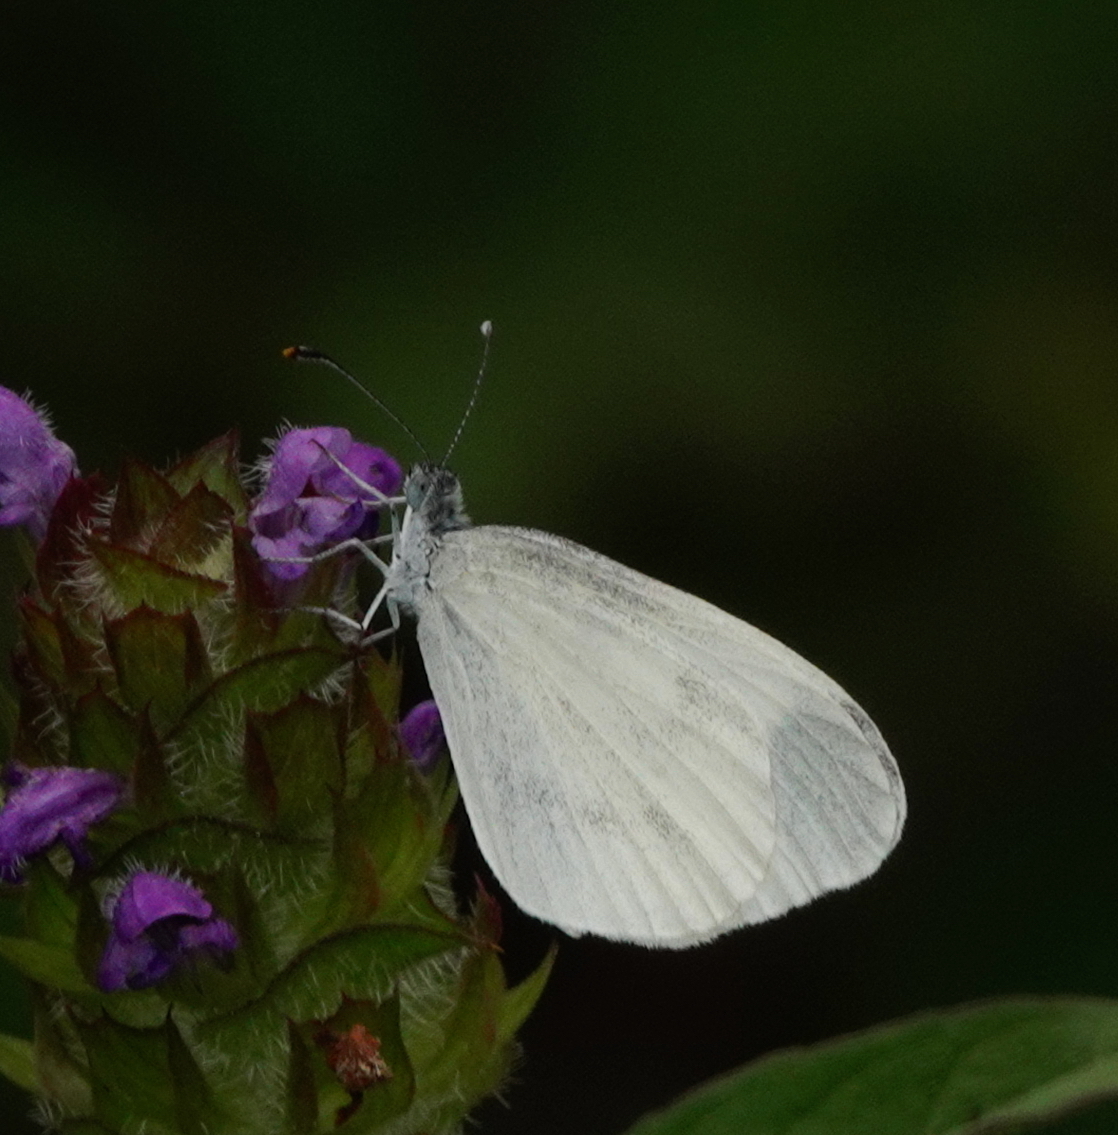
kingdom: Animalia
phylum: Arthropoda
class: Insecta
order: Lepidoptera
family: Pieridae
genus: Leptidea
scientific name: Leptidea sinapis
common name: Wood white
